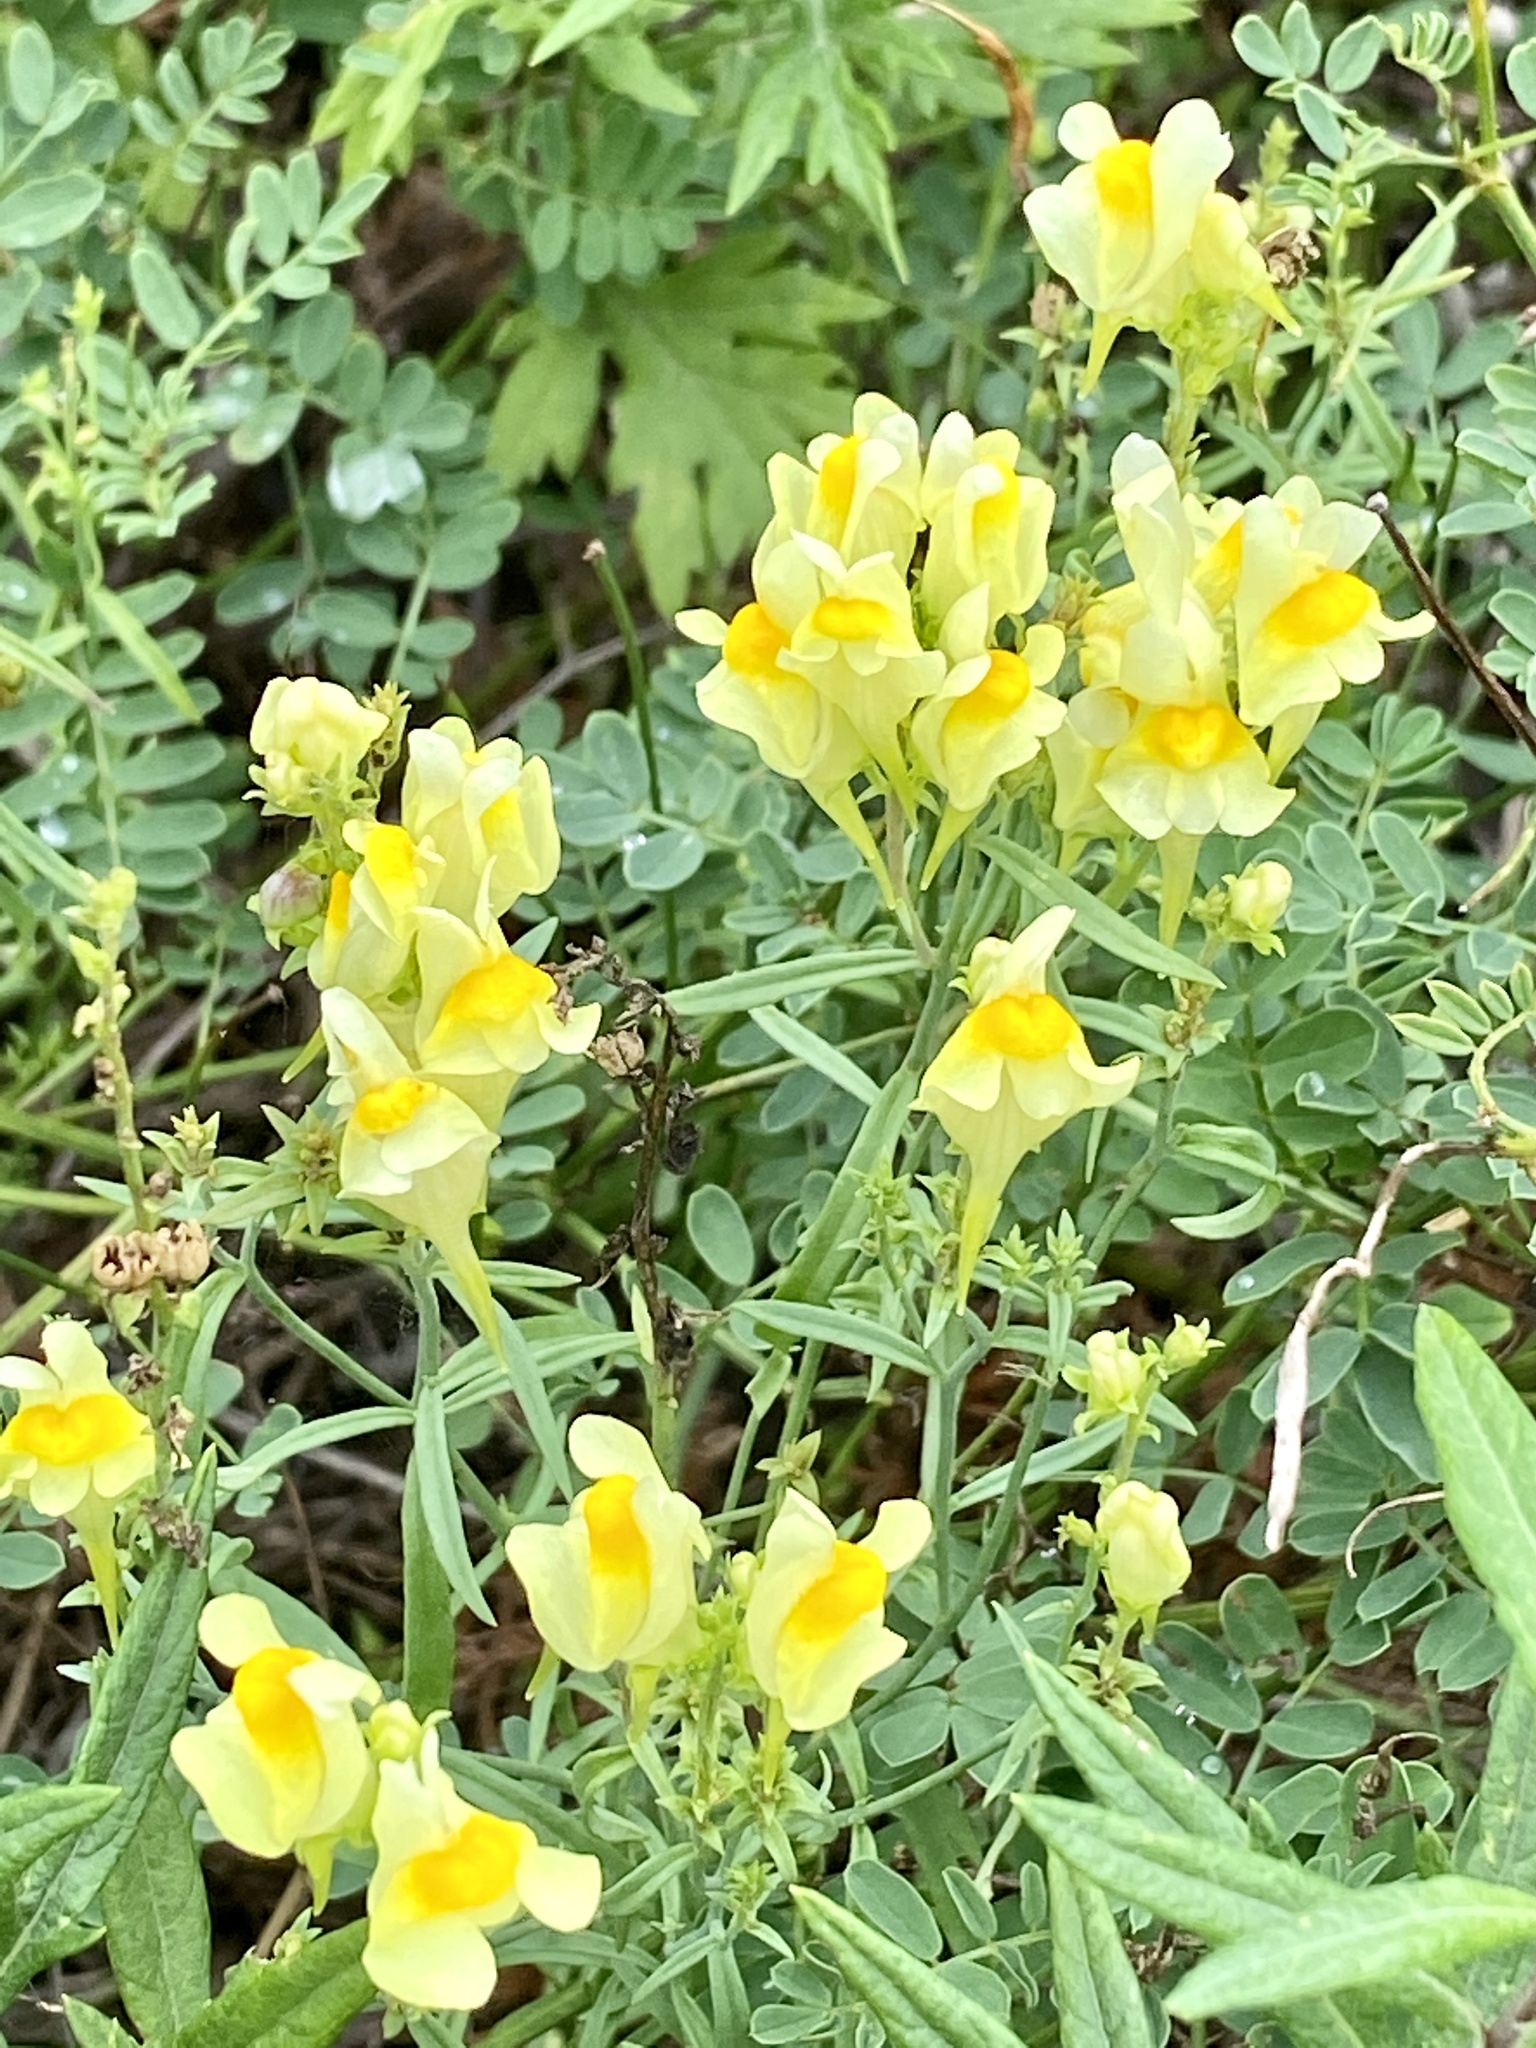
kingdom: Plantae
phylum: Tracheophyta
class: Magnoliopsida
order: Lamiales
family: Plantaginaceae
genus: Linaria
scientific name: Linaria vulgaris
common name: Butter and eggs
